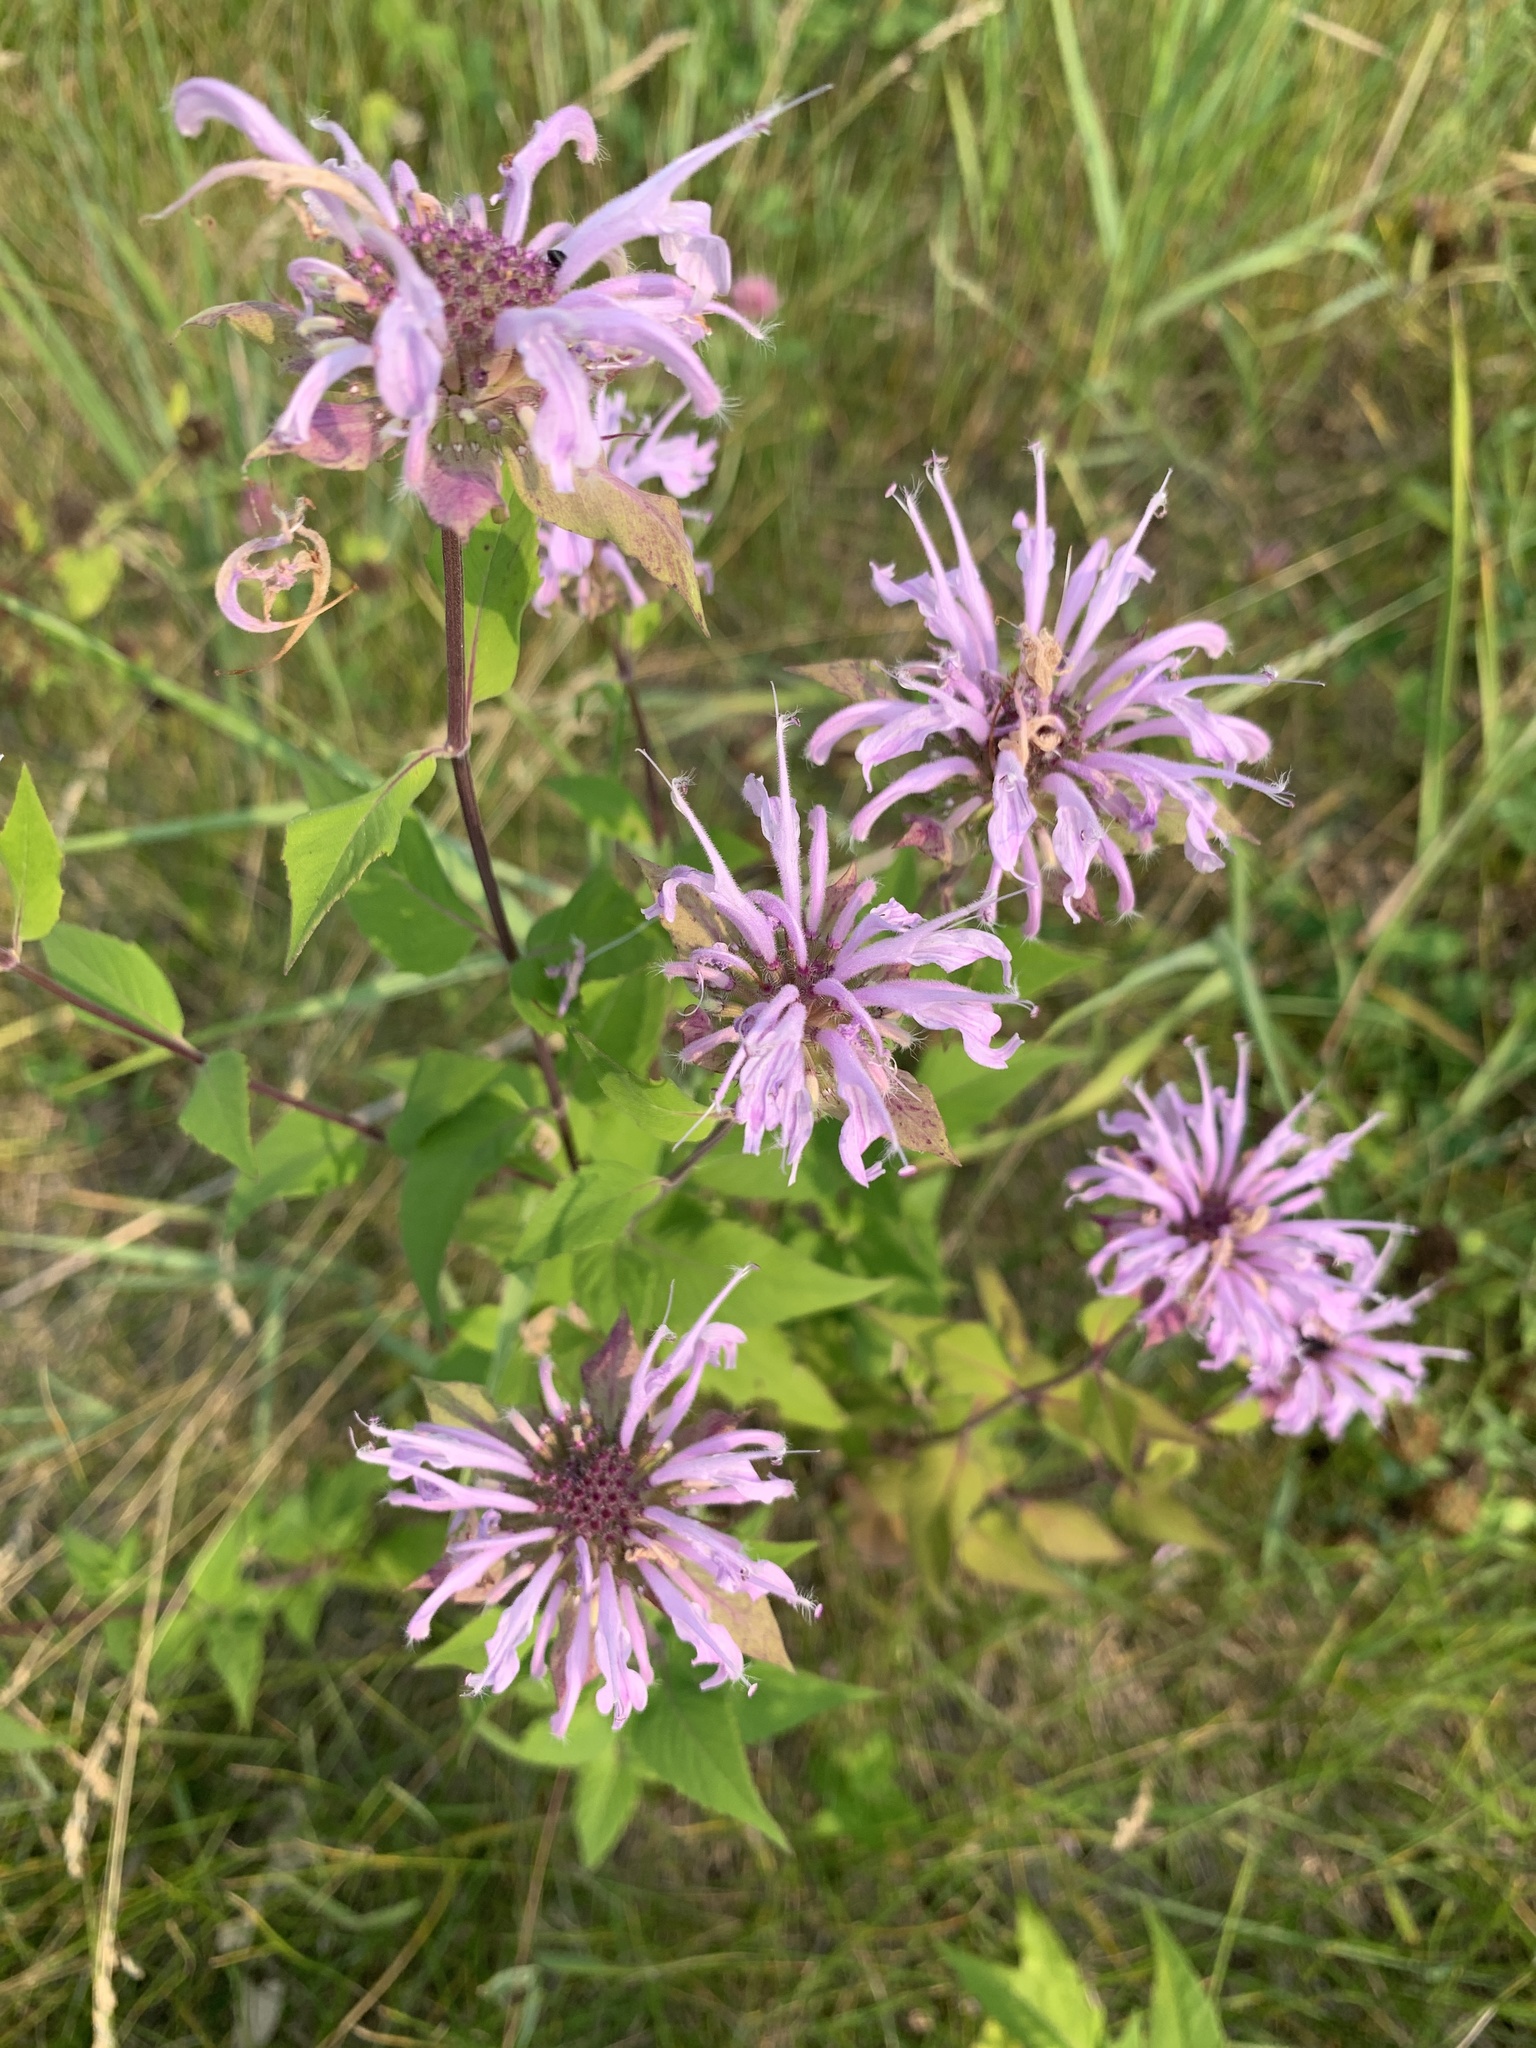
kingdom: Plantae
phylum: Tracheophyta
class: Magnoliopsida
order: Lamiales
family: Lamiaceae
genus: Monarda
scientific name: Monarda fistulosa
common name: Purple beebalm
